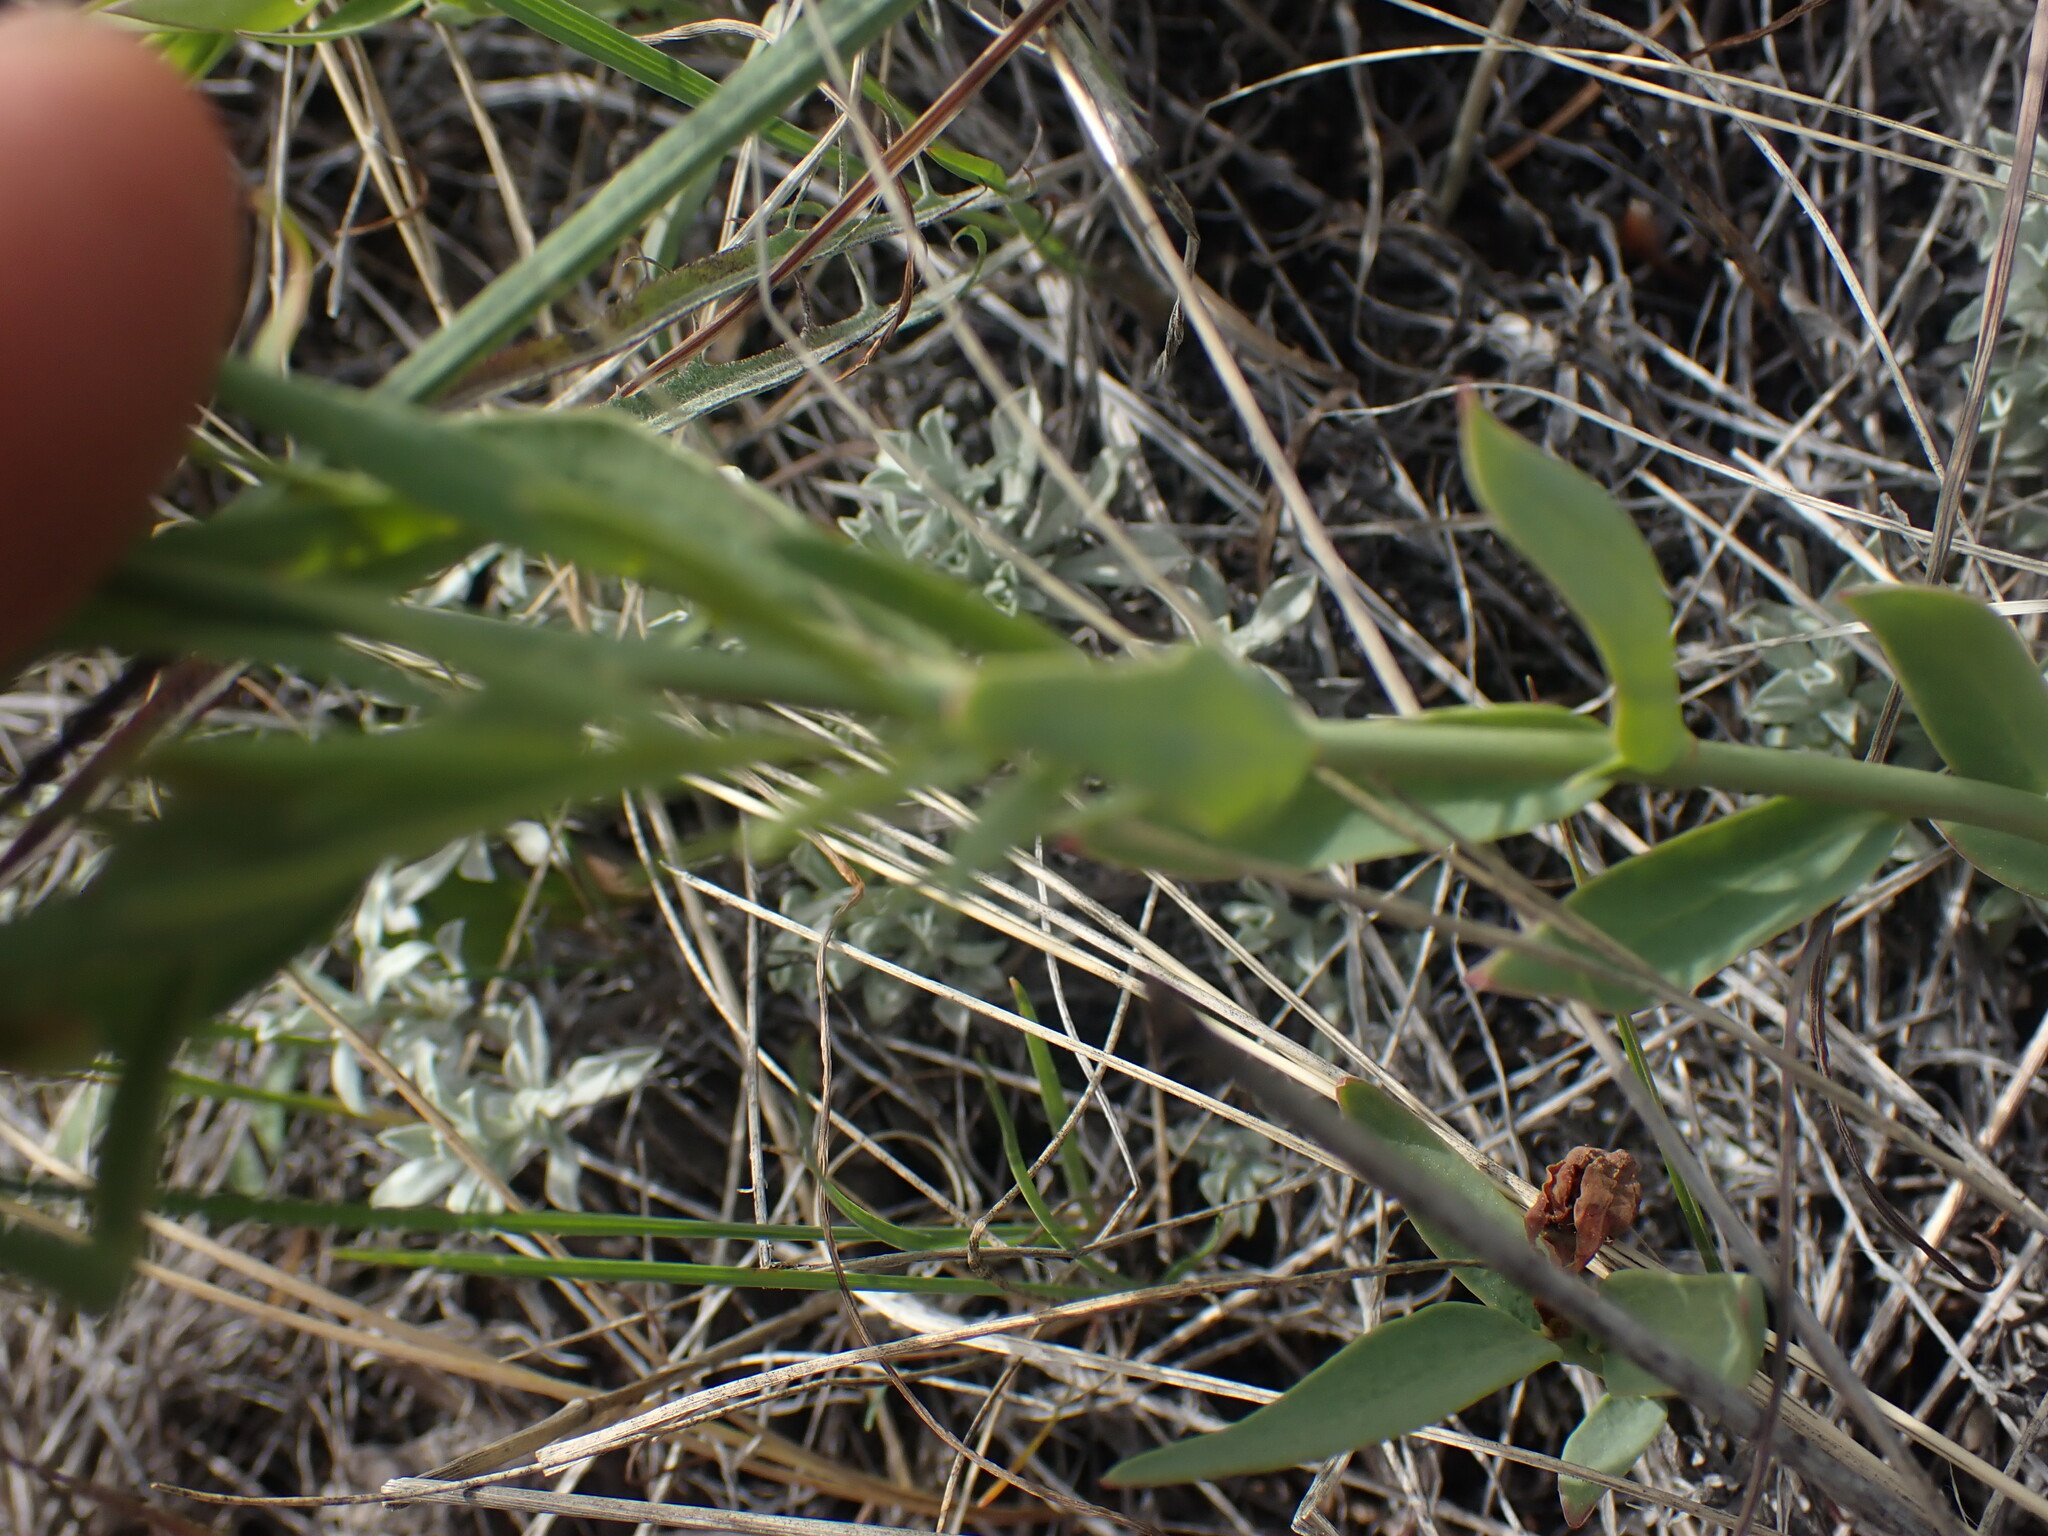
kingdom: Plantae
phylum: Tracheophyta
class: Magnoliopsida
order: Santalales
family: Comandraceae
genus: Comandra
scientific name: Comandra umbellata
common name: Bastard toadflax
